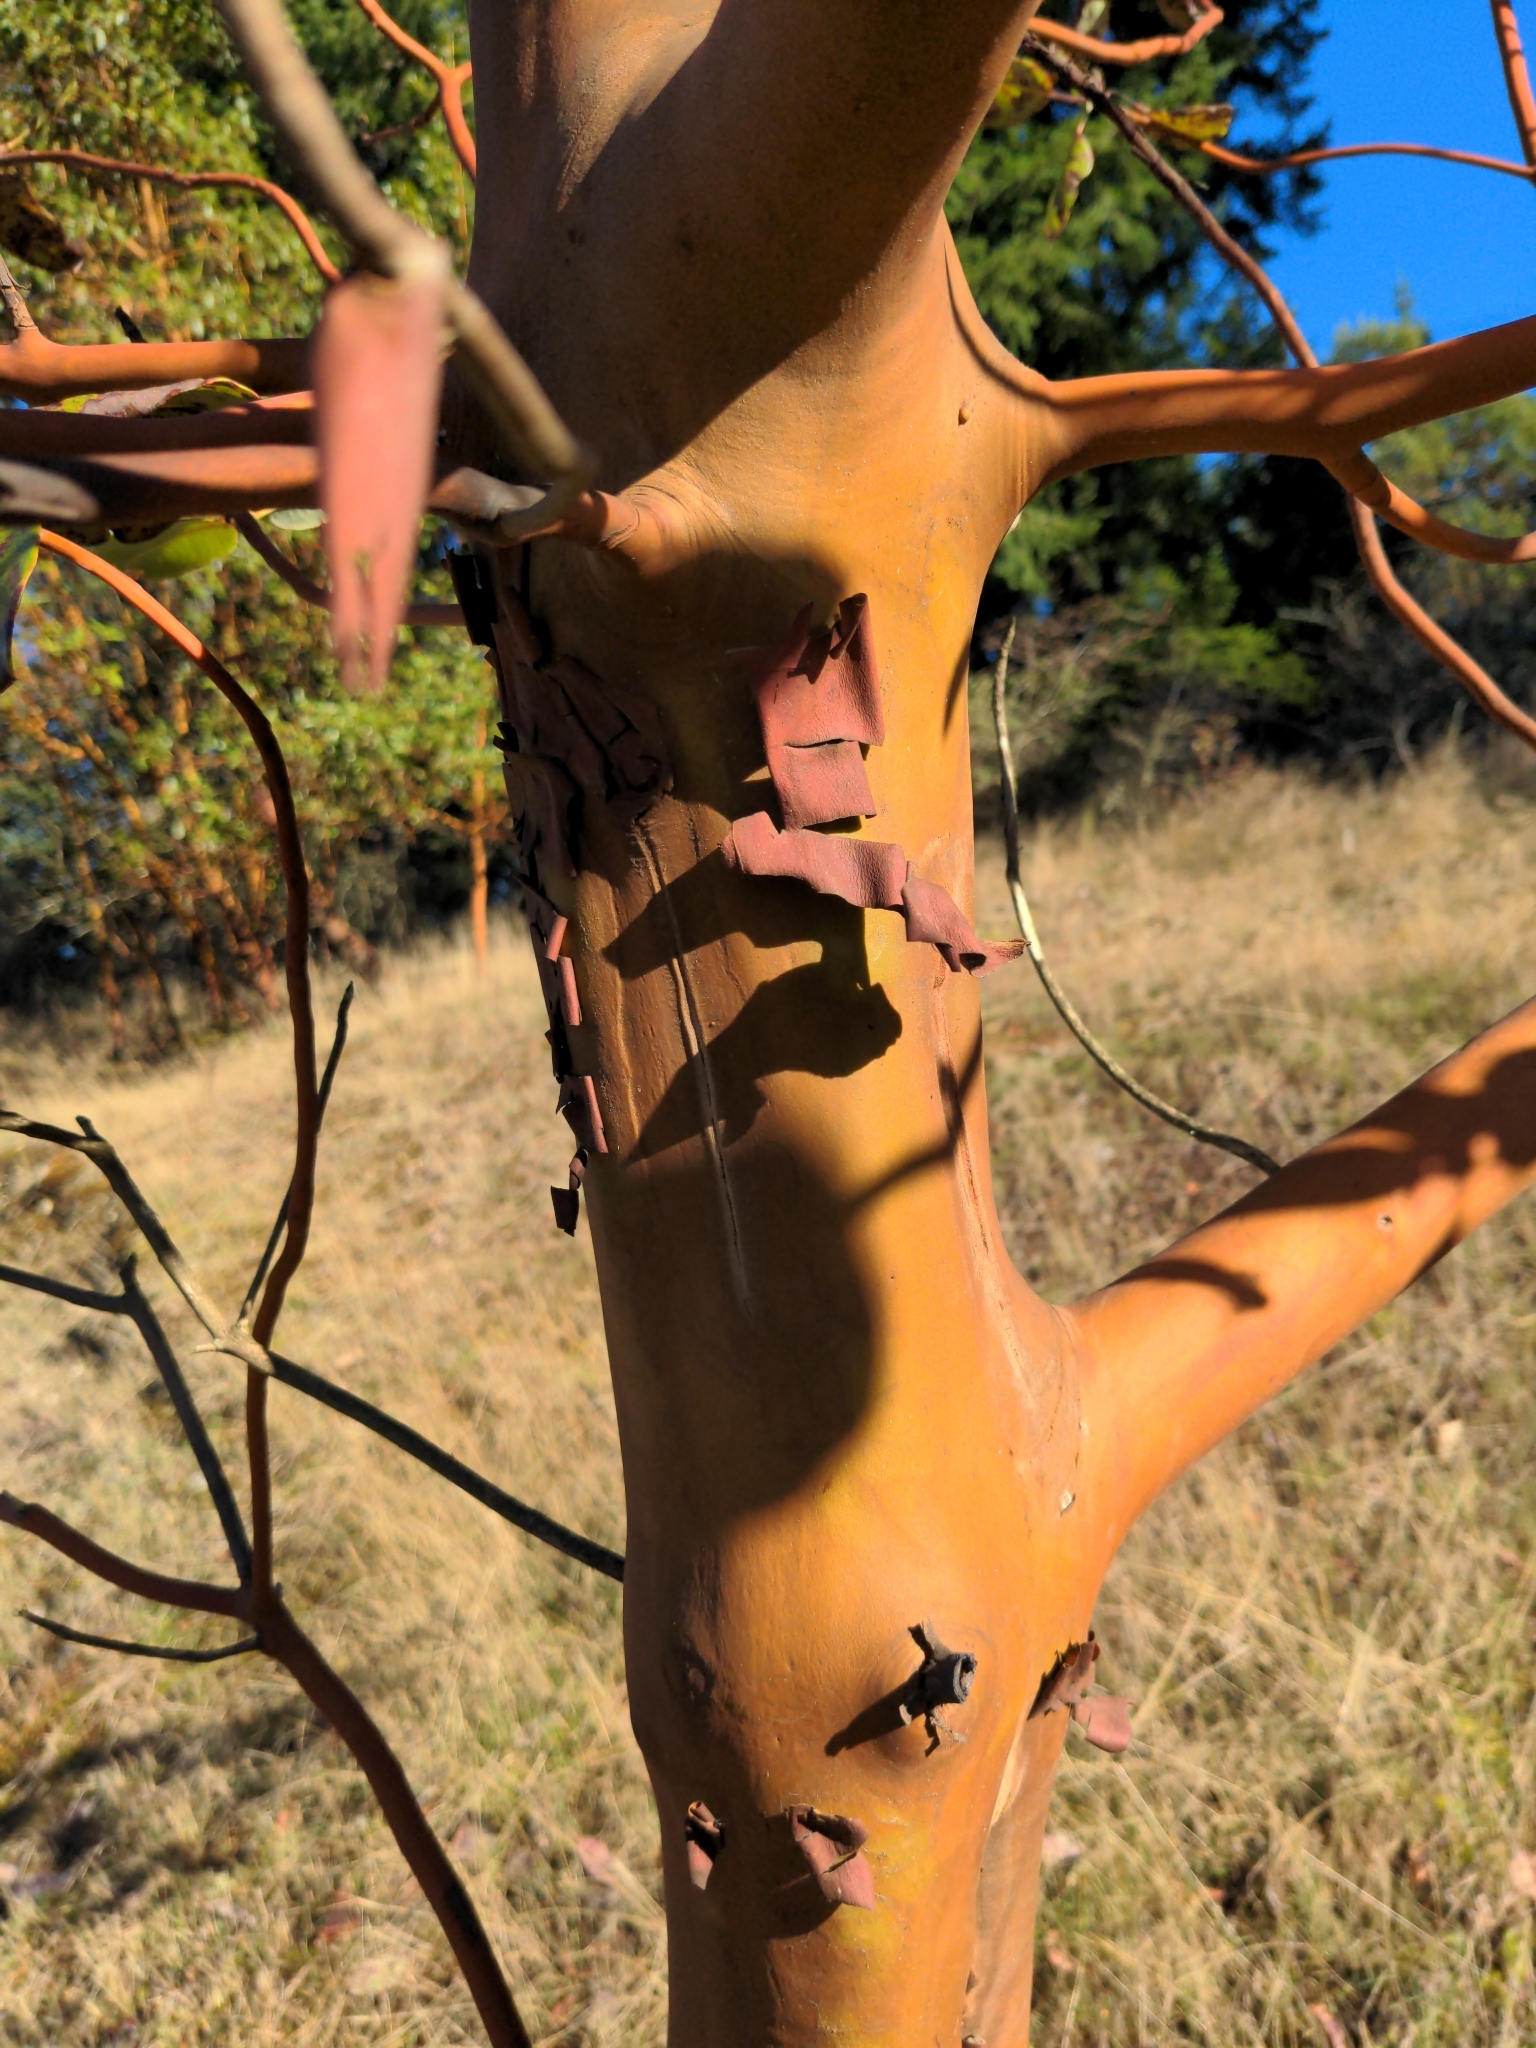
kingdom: Plantae
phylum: Tracheophyta
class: Magnoliopsida
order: Ericales
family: Ericaceae
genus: Arbutus
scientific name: Arbutus menziesii
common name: Pacific madrone
